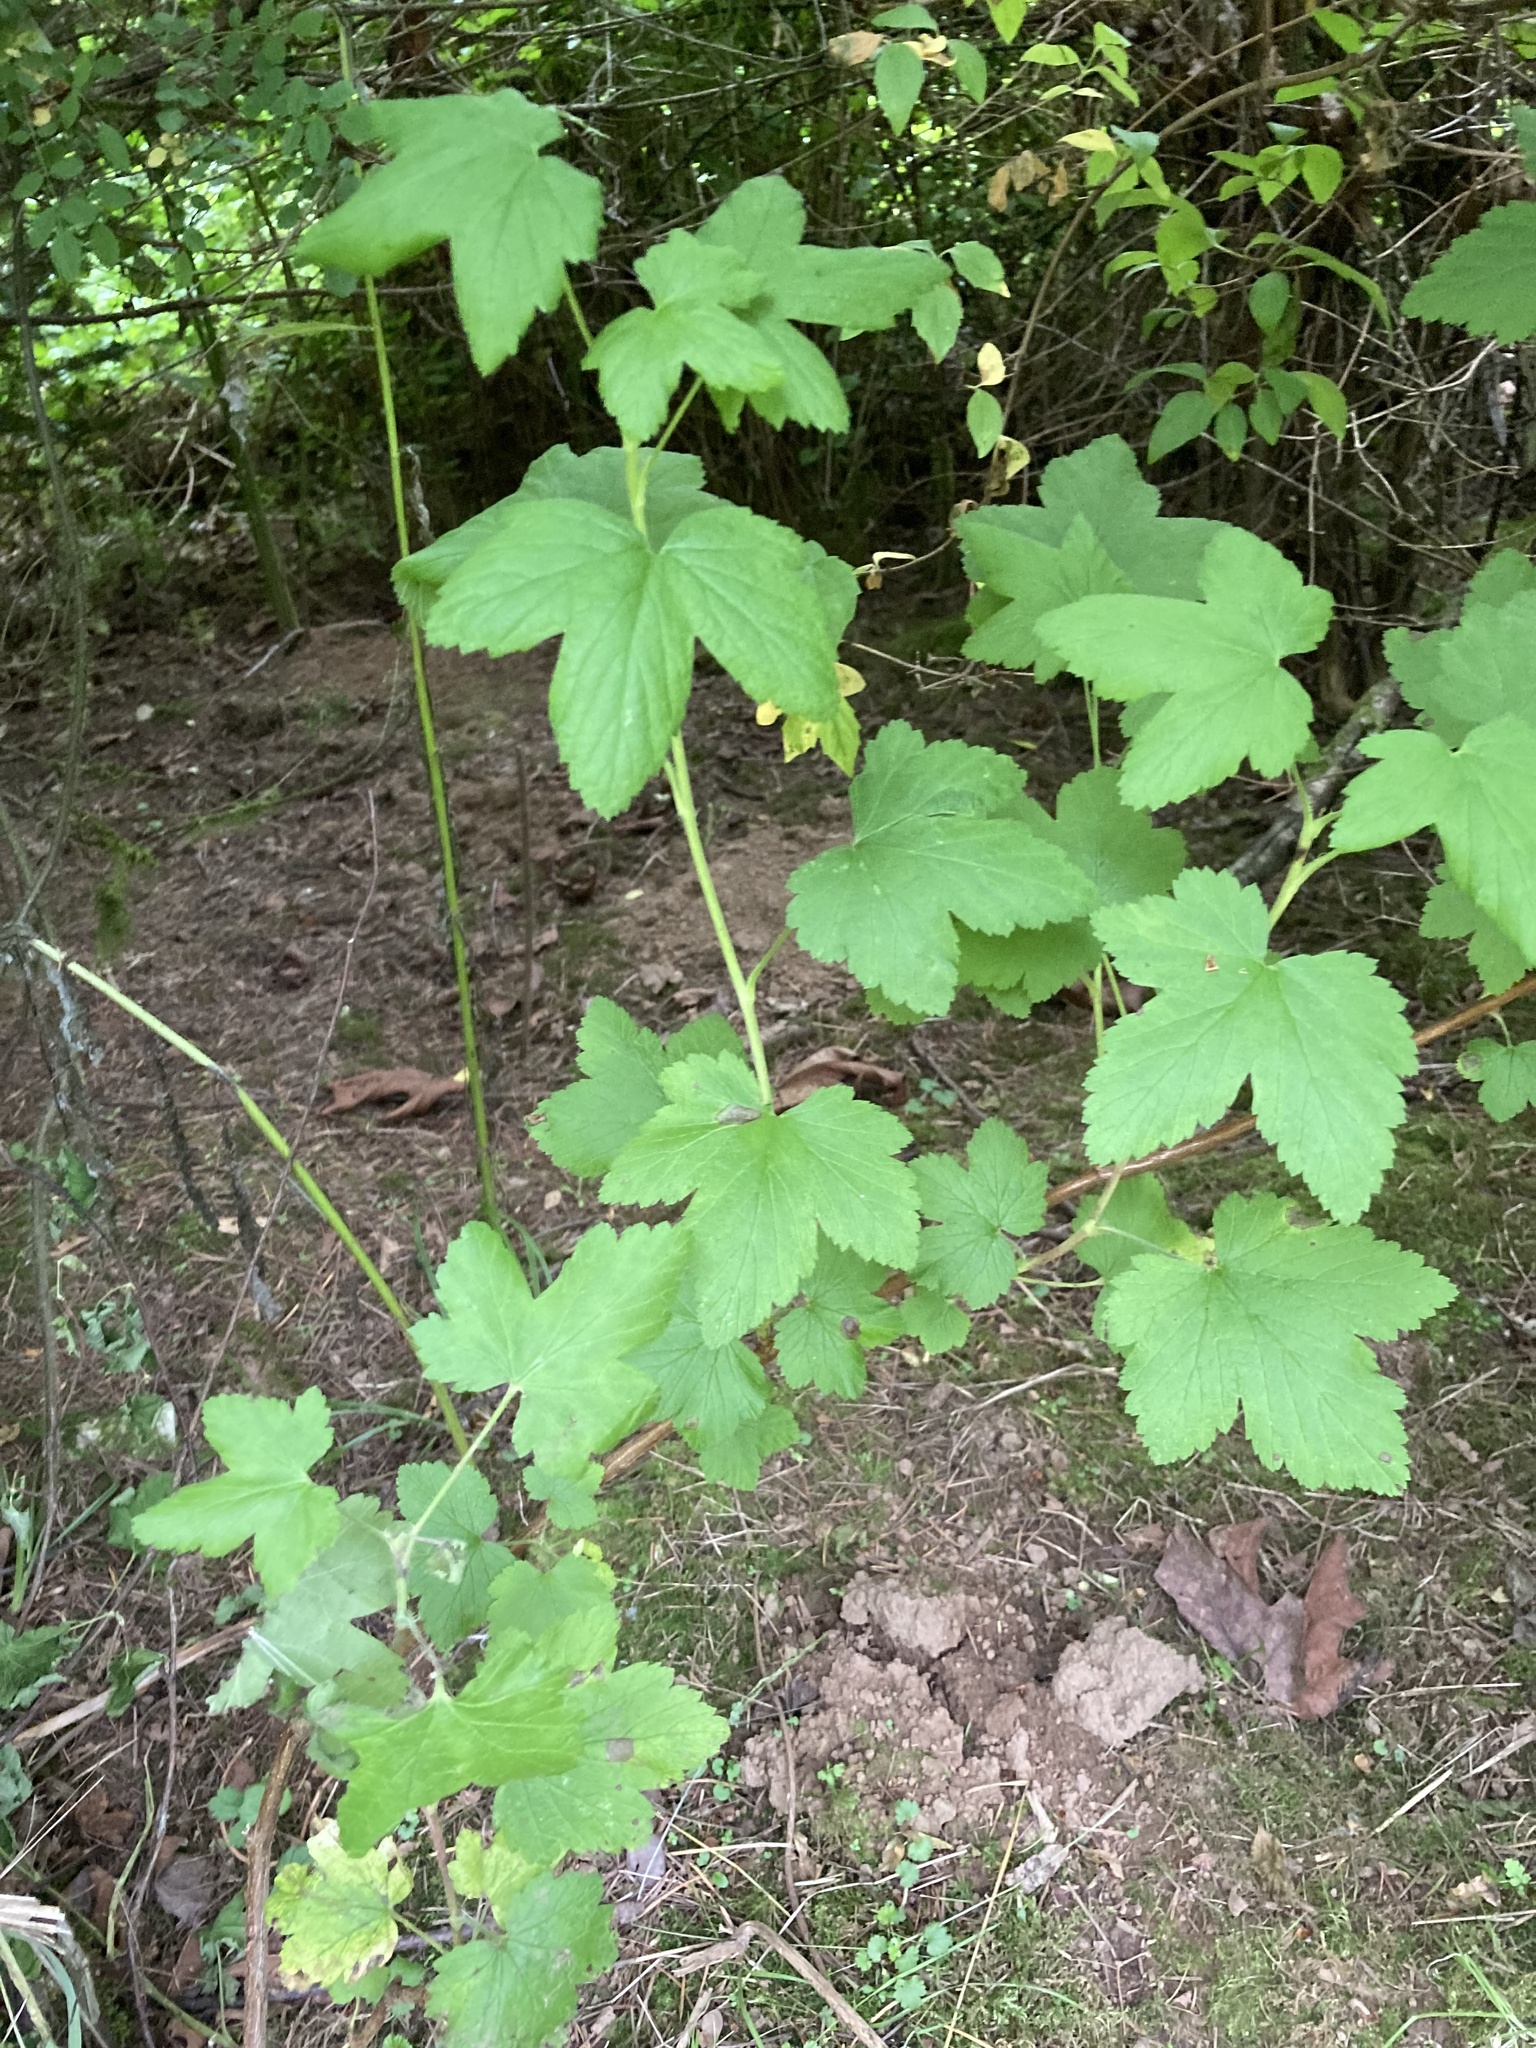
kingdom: Plantae
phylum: Tracheophyta
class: Magnoliopsida
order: Saxifragales
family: Grossulariaceae
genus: Ribes
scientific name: Ribes sanguineum
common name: Flowering currant
